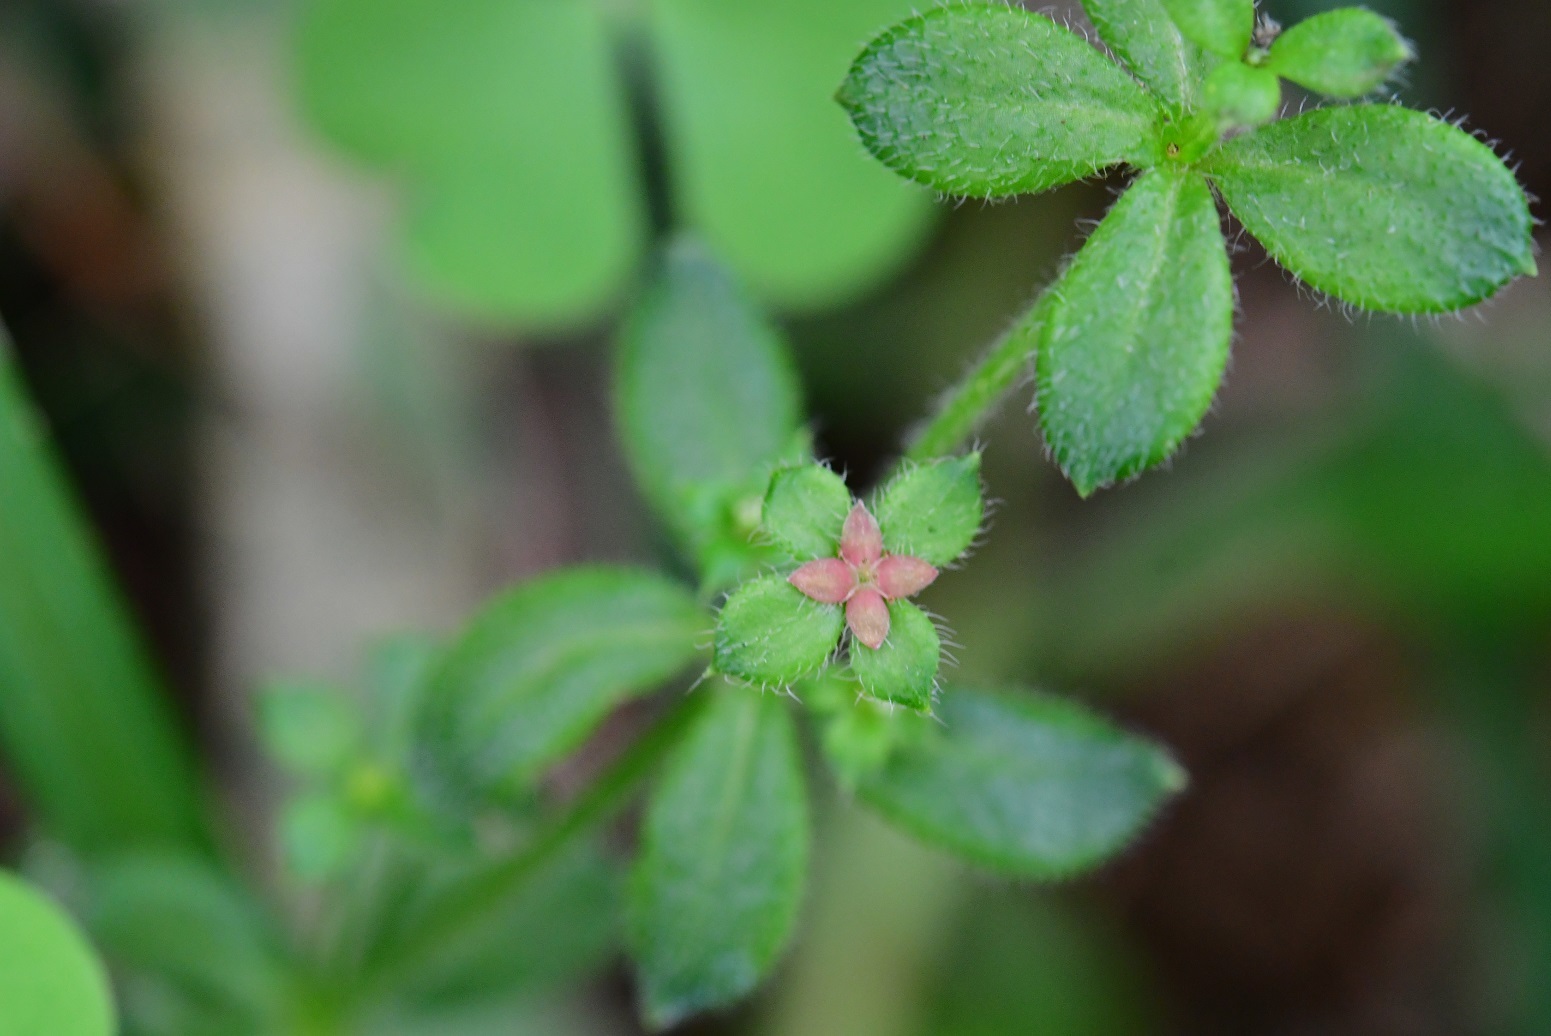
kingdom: Plantae
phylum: Tracheophyta
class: Magnoliopsida
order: Gentianales
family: Rubiaceae
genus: Galium
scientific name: Galium hypocarpium
